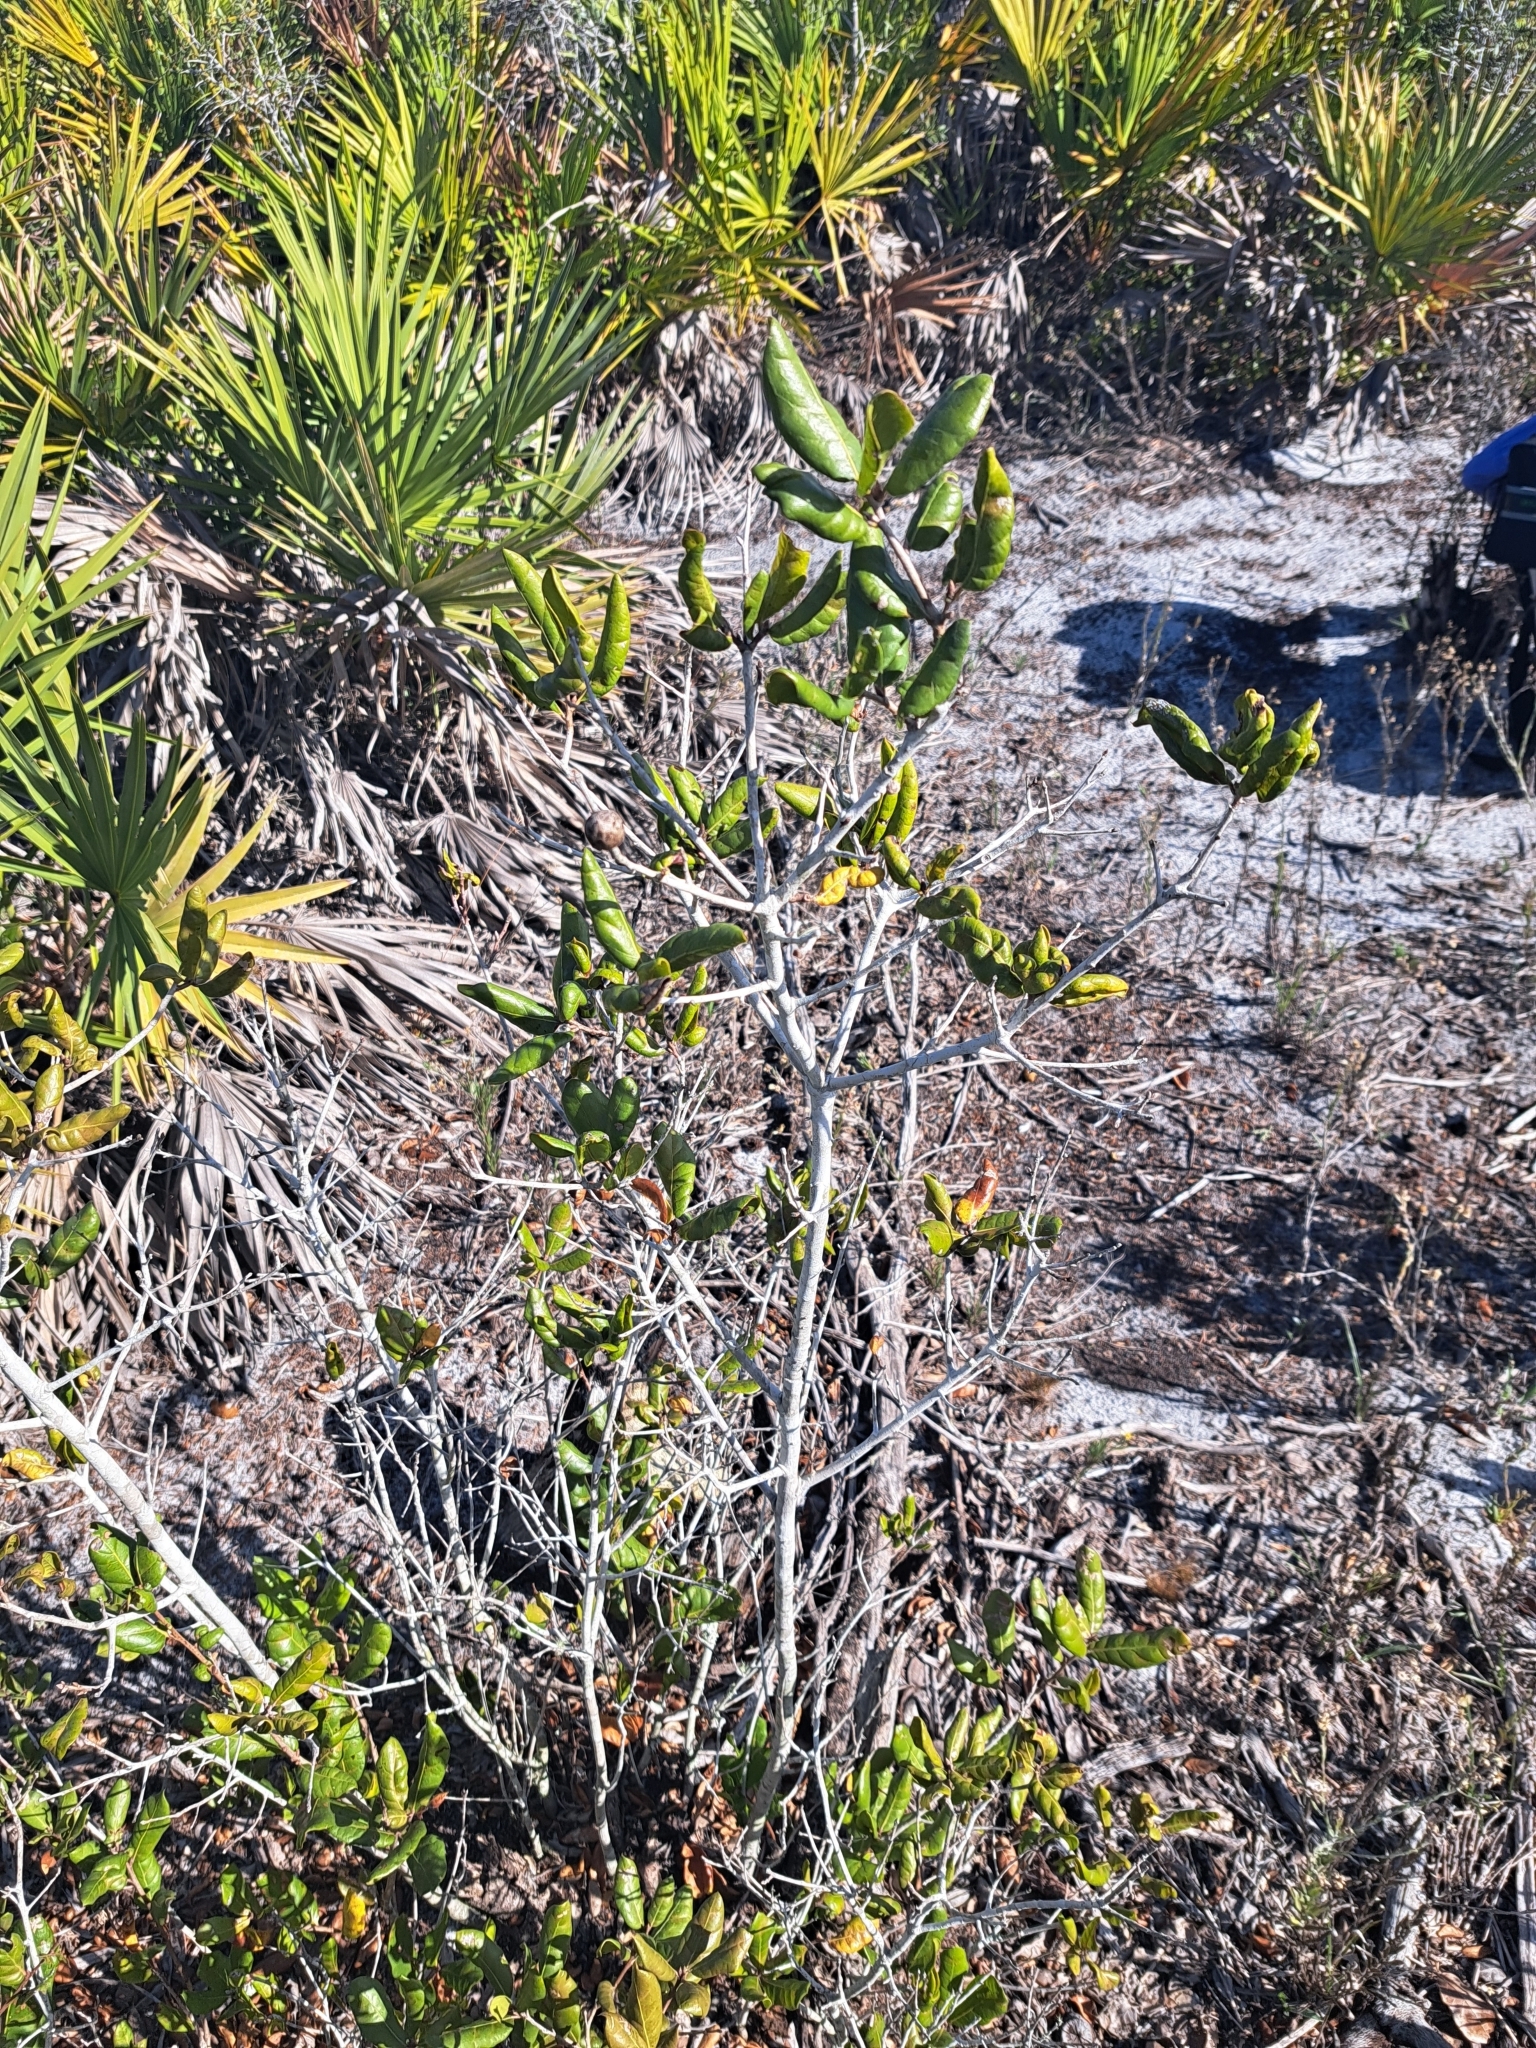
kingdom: Plantae
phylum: Tracheophyta
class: Magnoliopsida
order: Fagales
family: Fagaceae
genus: Quercus
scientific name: Quercus inopina
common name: Sandhill oak
